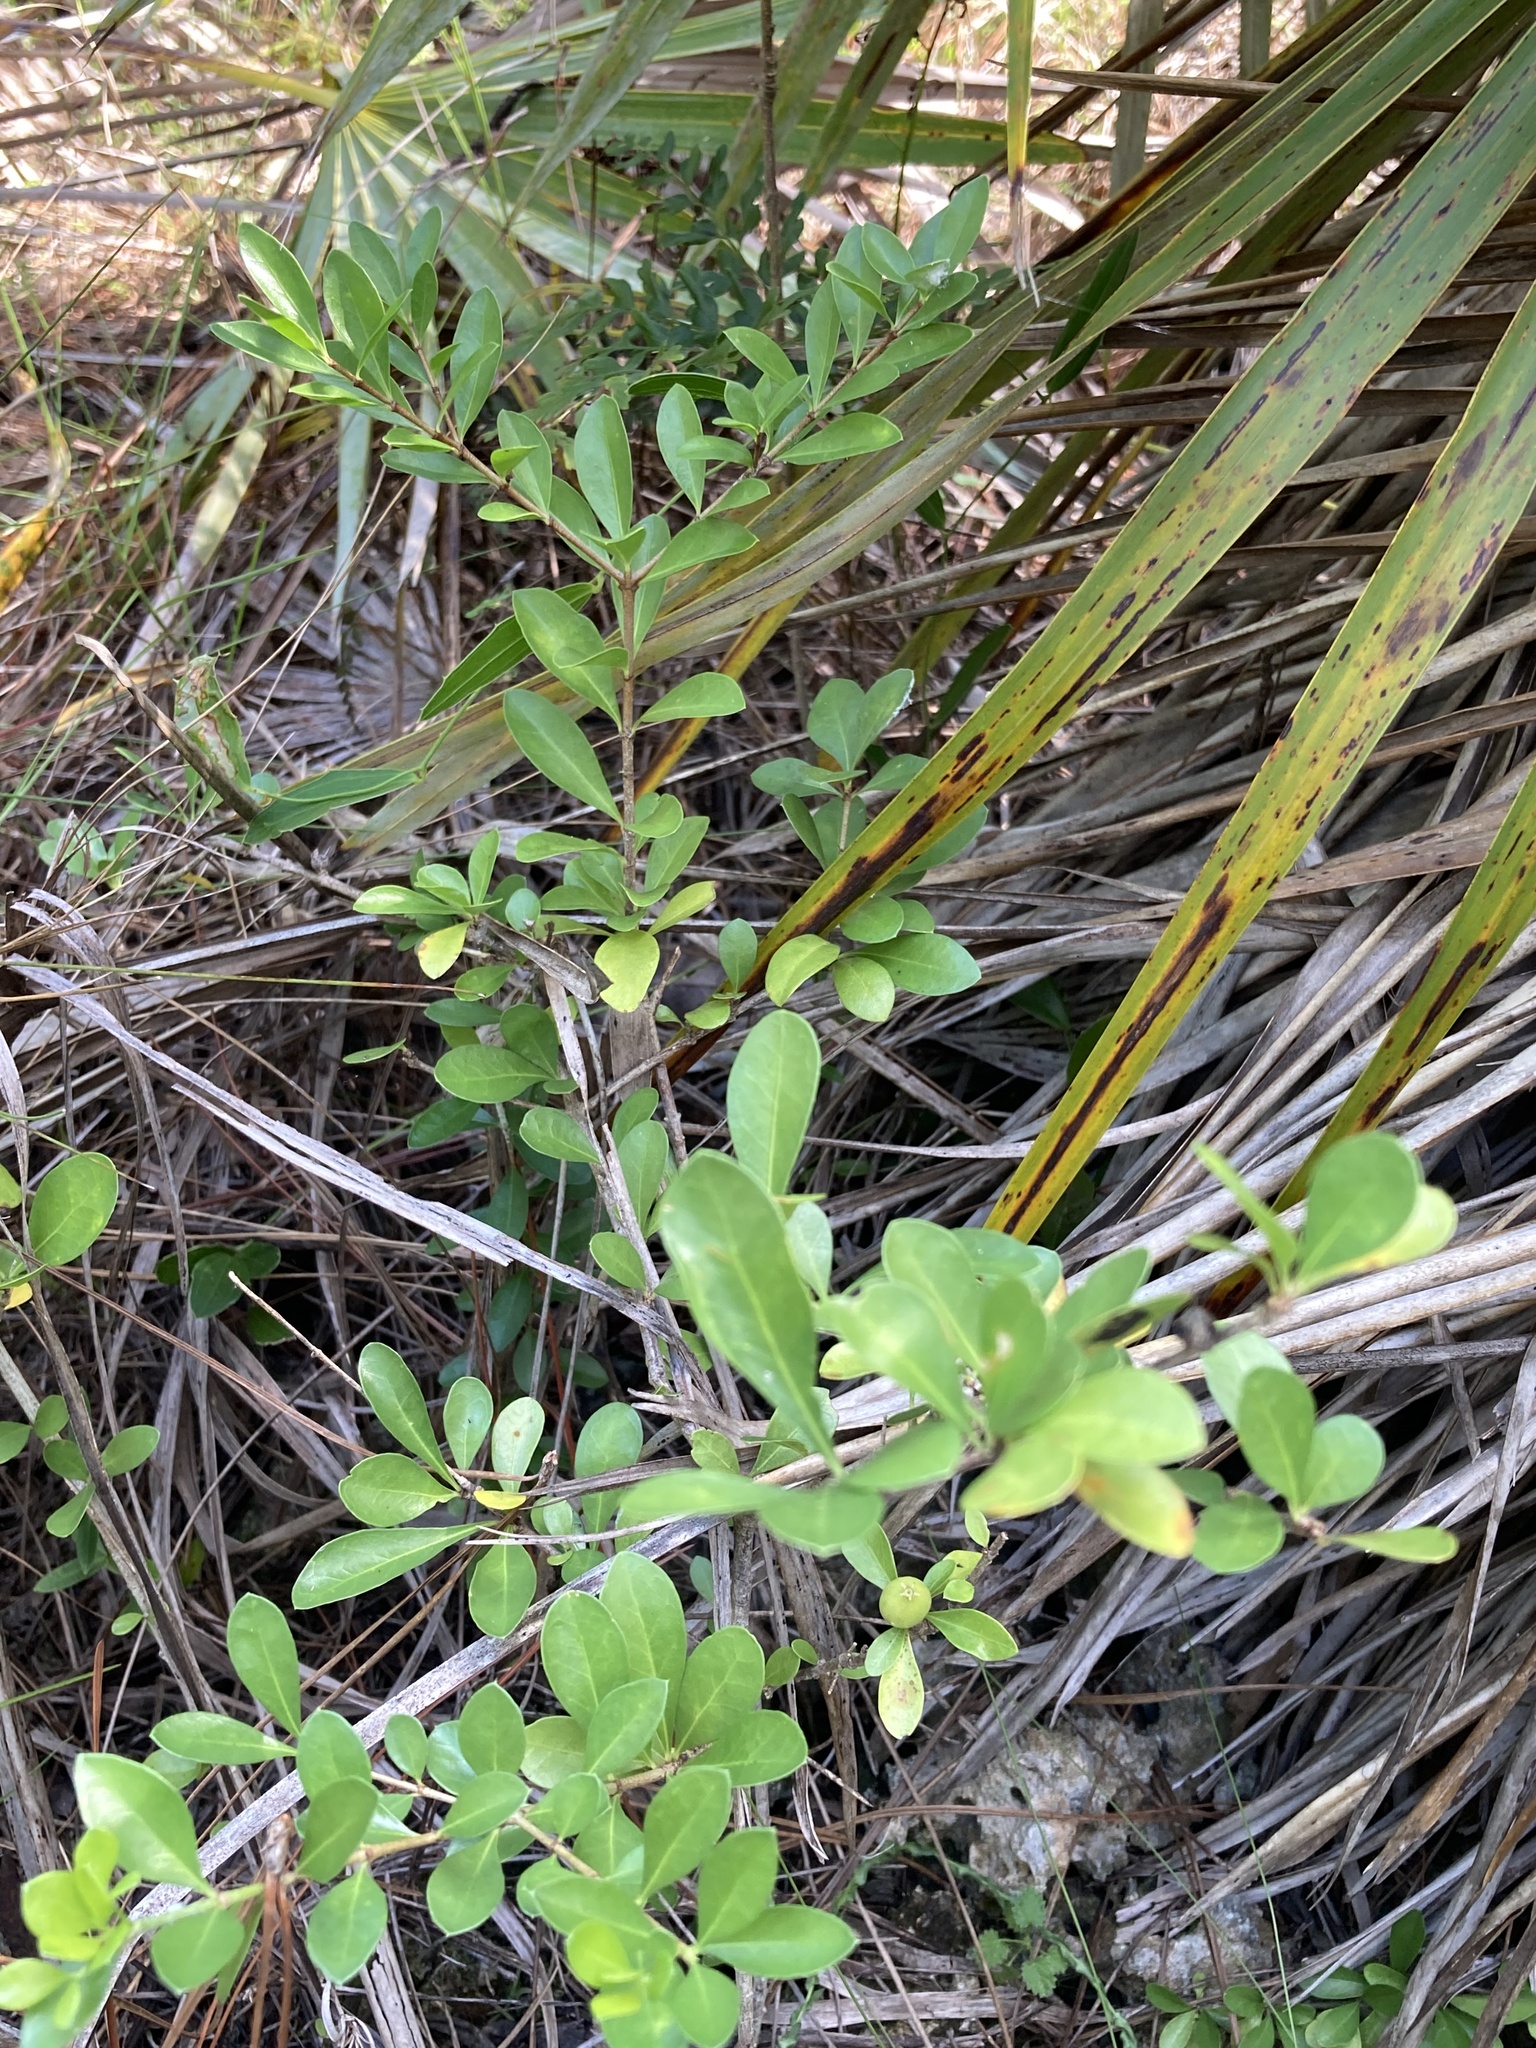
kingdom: Plantae
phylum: Tracheophyta
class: Magnoliopsida
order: Gentianales
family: Rubiaceae
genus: Randia
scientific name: Randia aculeata
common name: Inkberry
